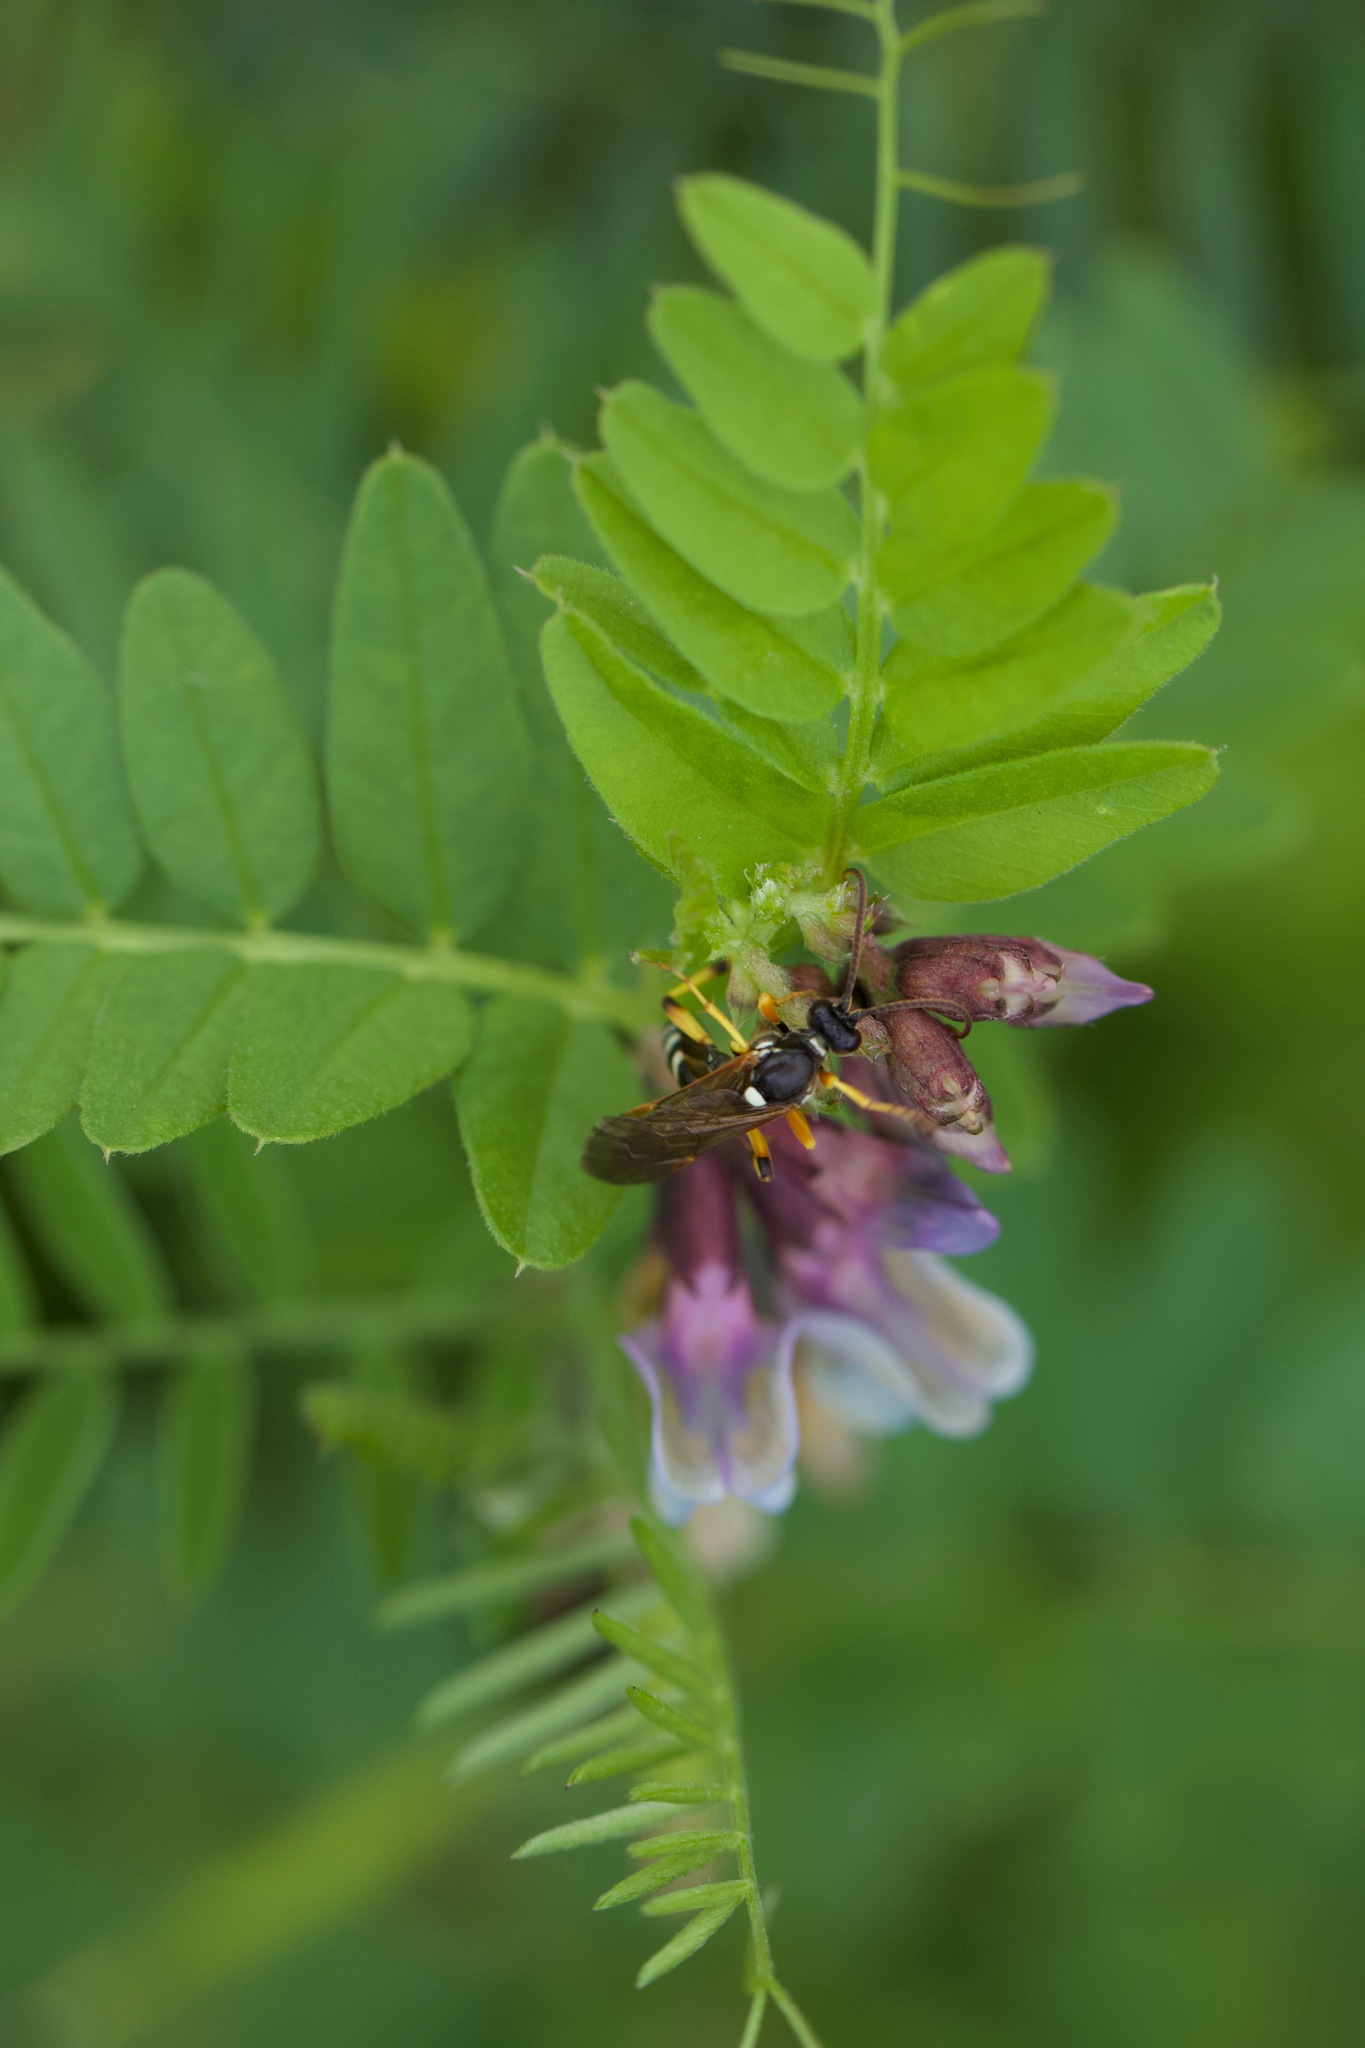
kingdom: Animalia
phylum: Arthropoda
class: Insecta
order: Hymenoptera
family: Ichneumonidae
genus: Ichneumon
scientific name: Ichneumon sarcitorius
